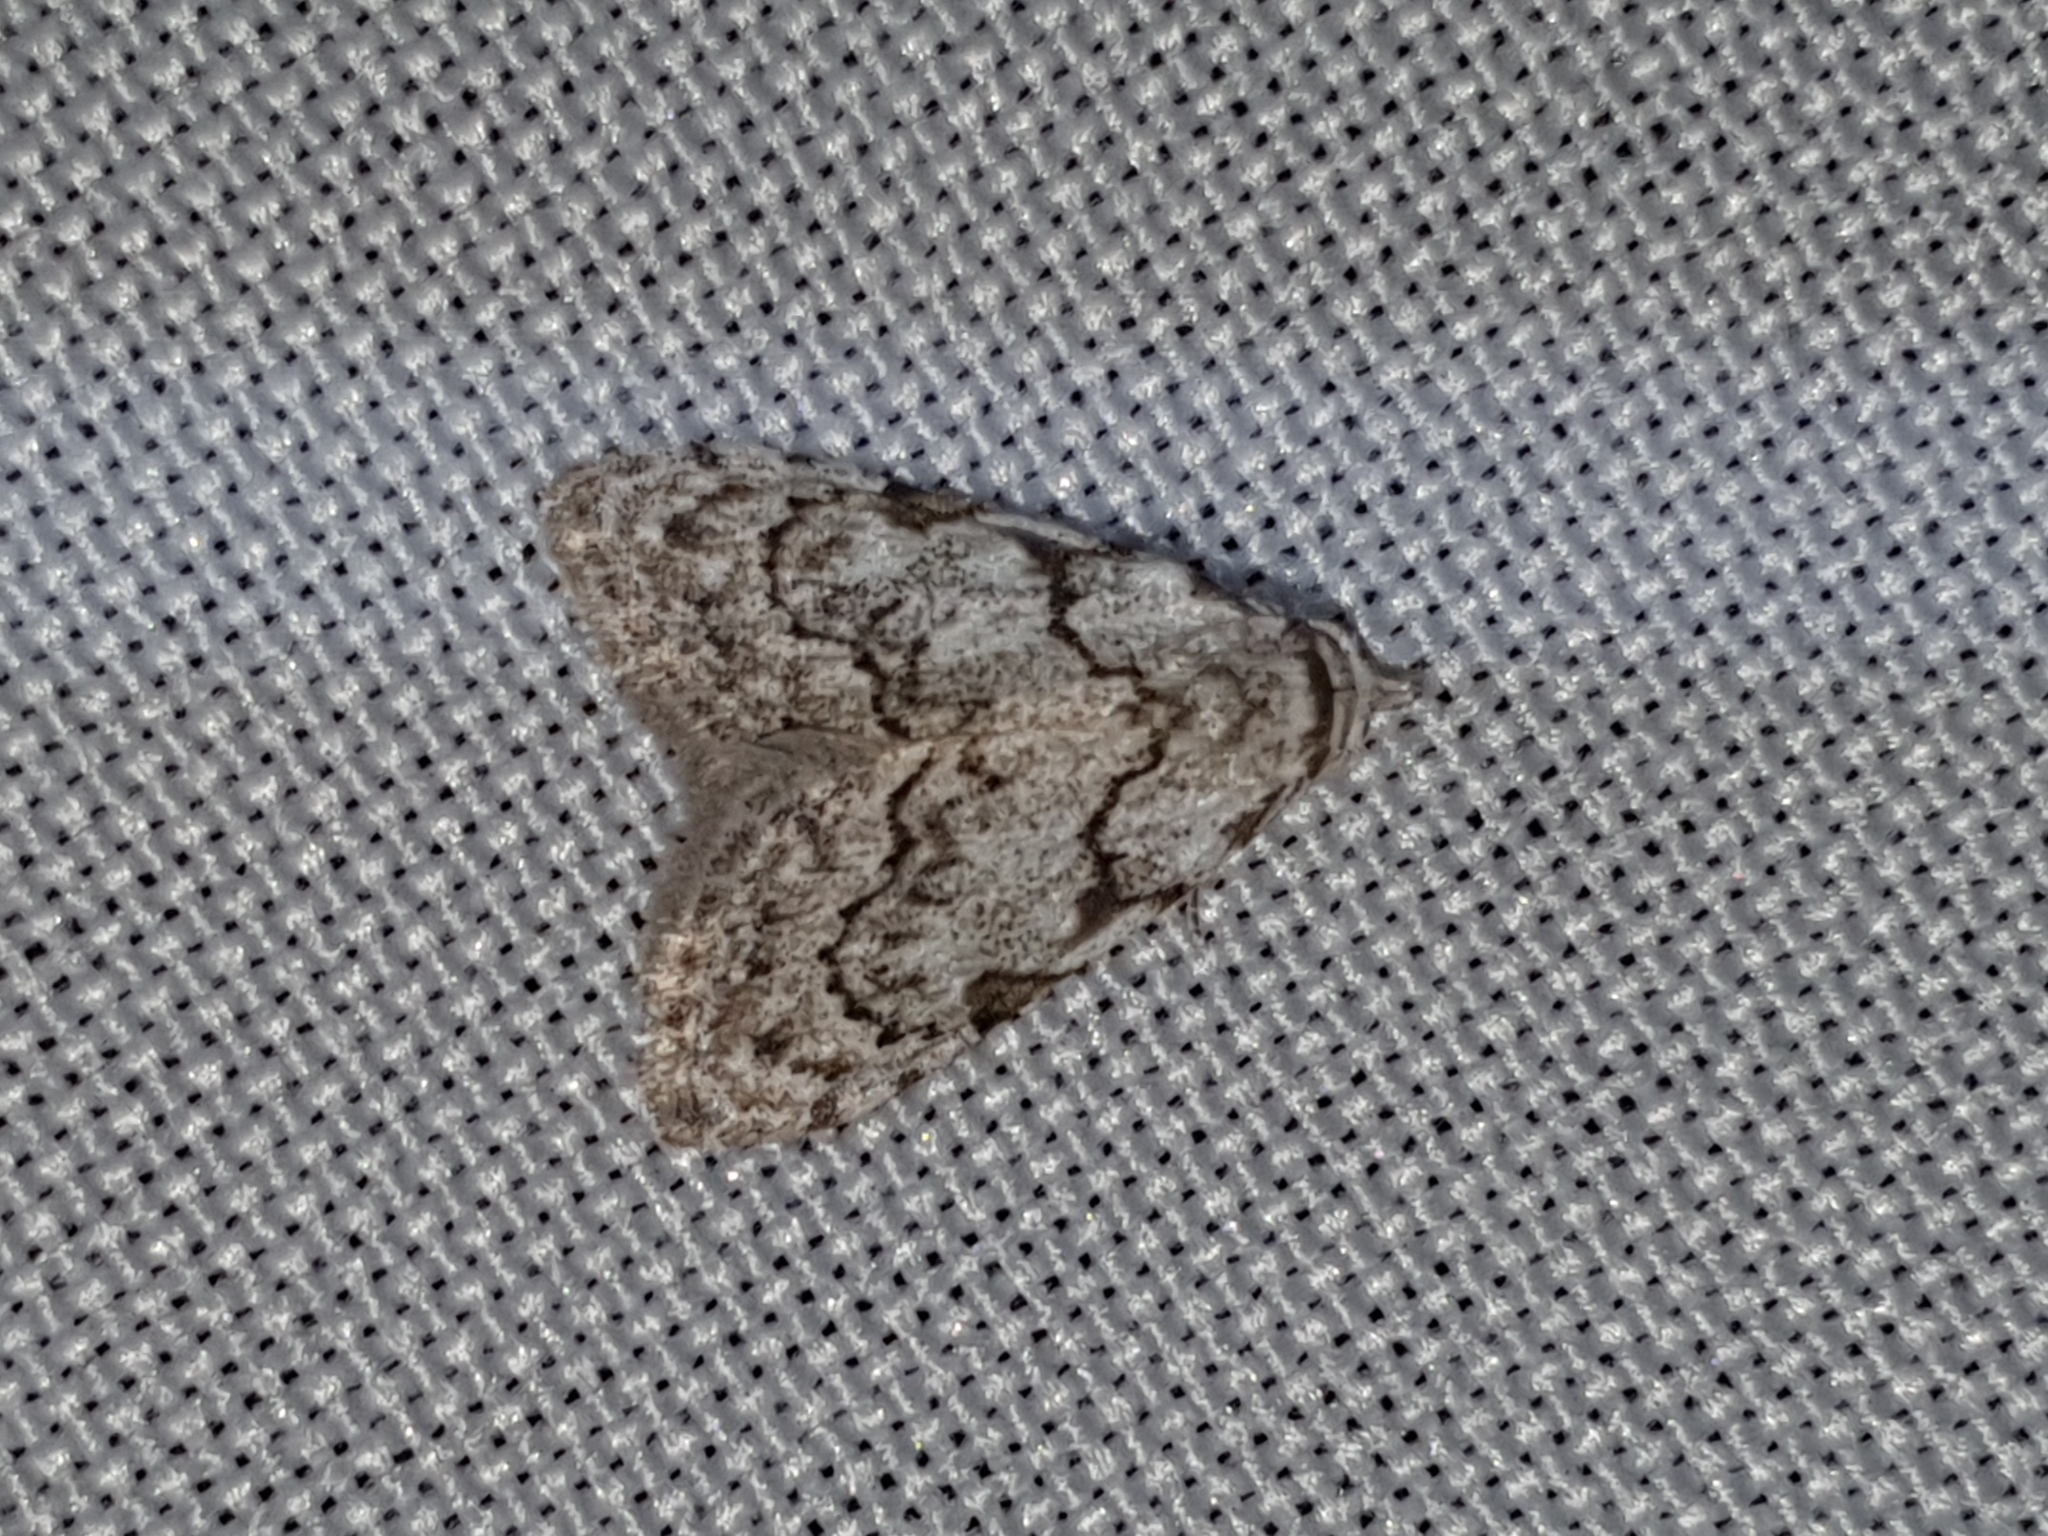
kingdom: Animalia
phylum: Arthropoda
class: Insecta
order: Lepidoptera
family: Nolidae
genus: Nola
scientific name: Nola confusalis
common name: Least black arches
